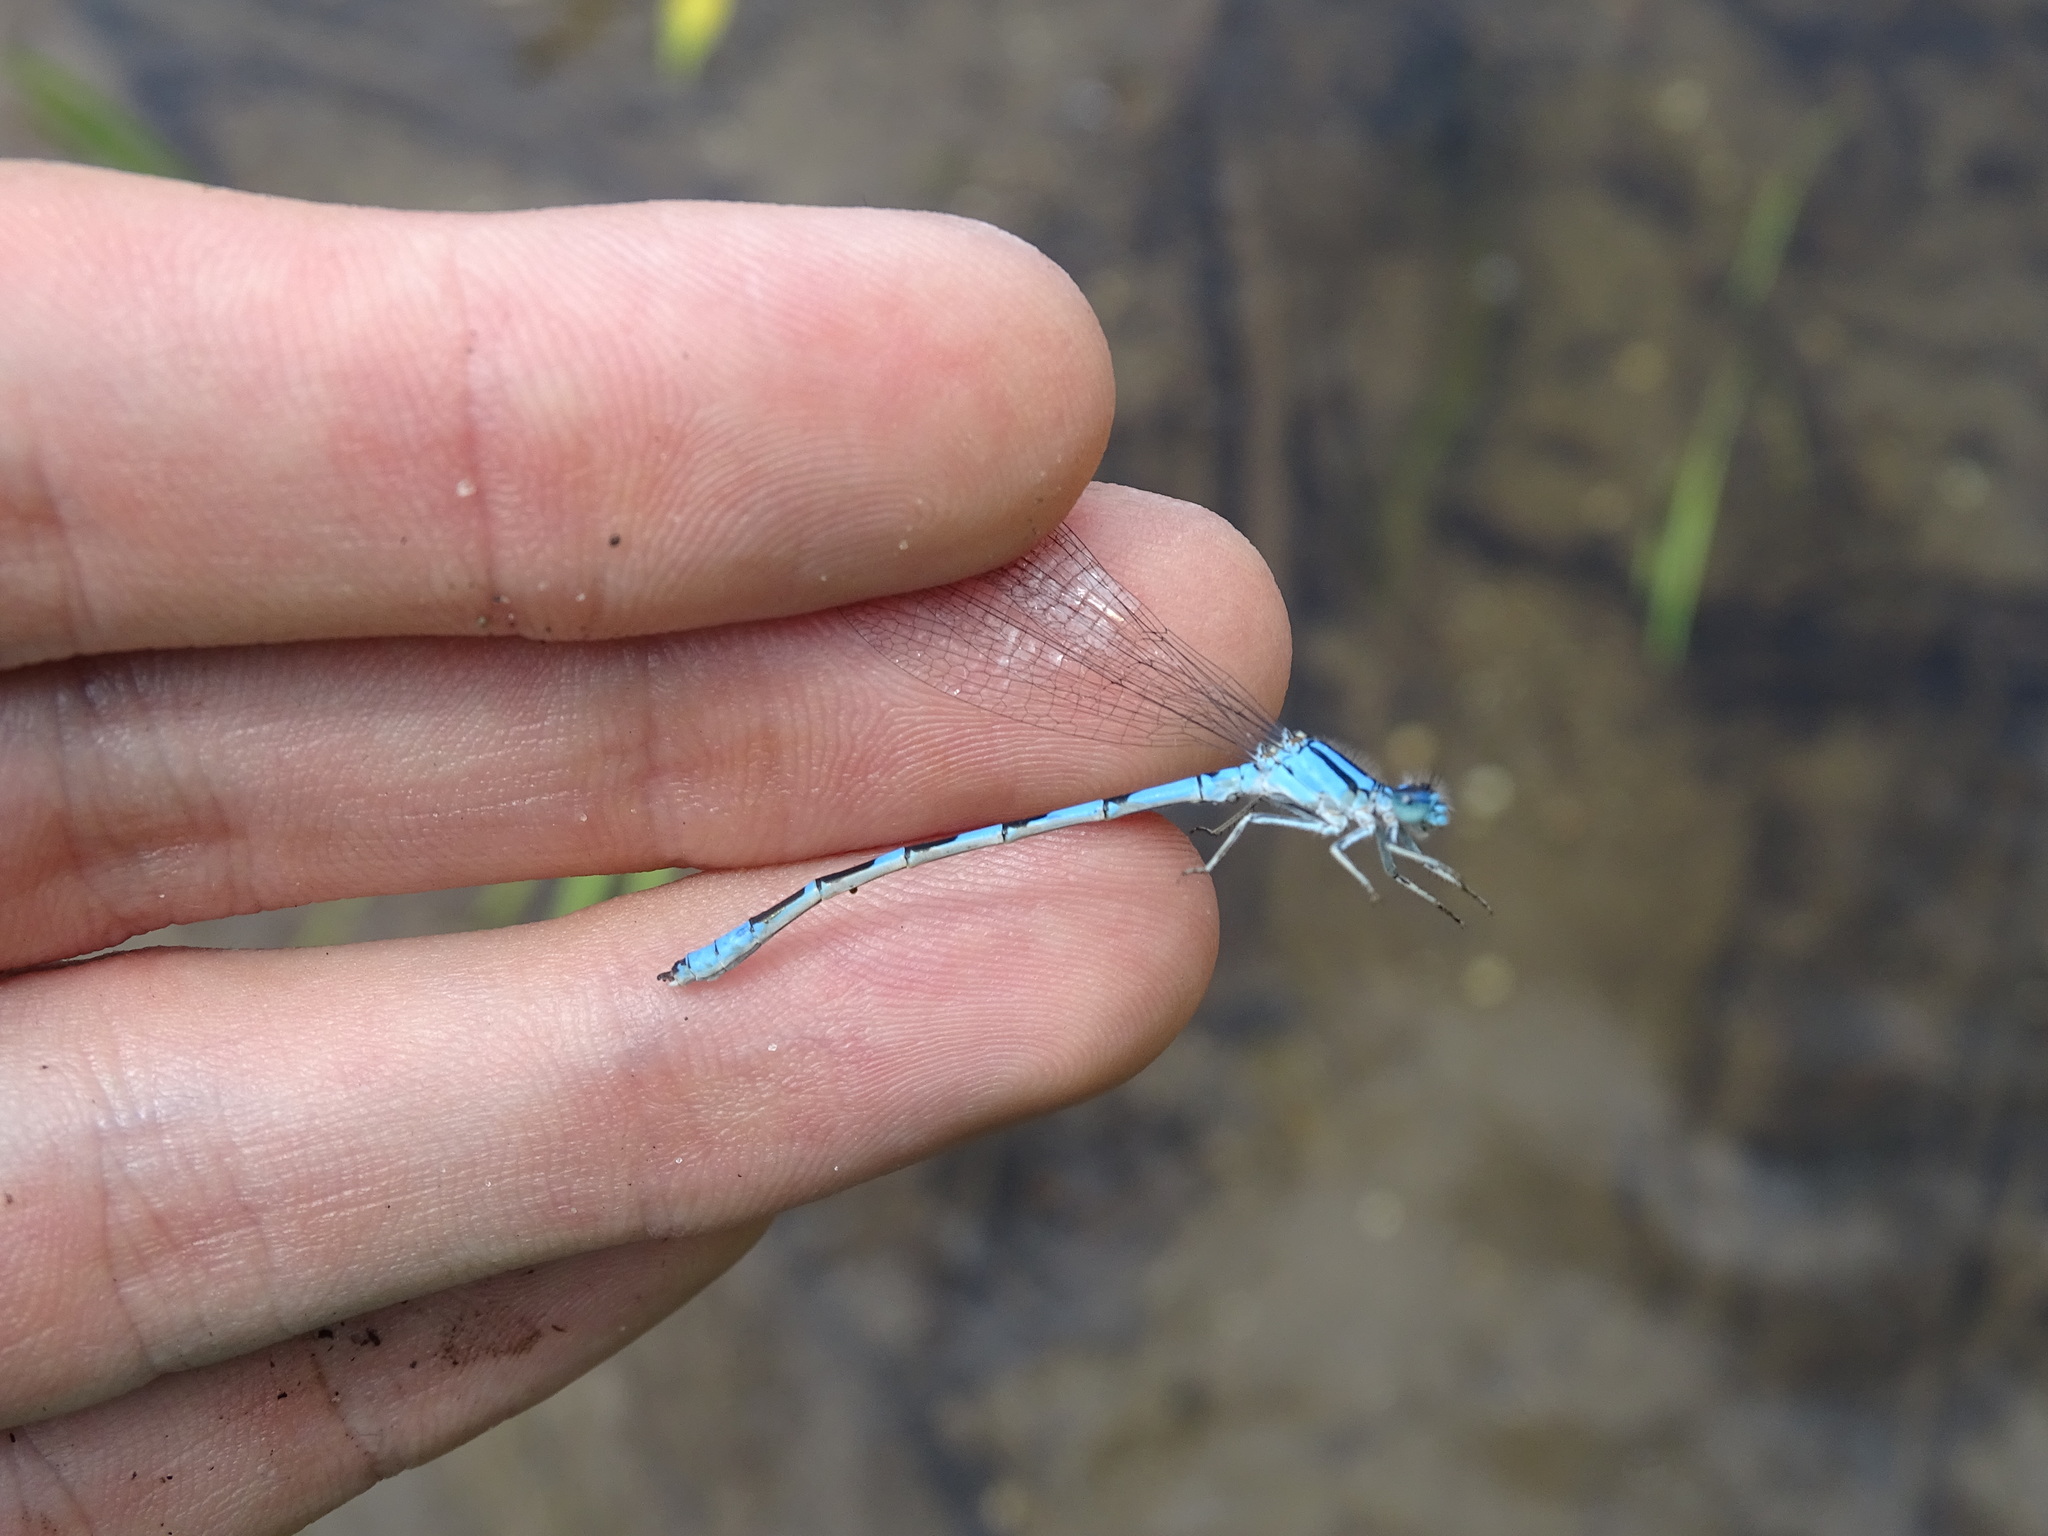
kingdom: Animalia
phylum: Arthropoda
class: Insecta
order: Odonata
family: Coenagrionidae
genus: Enallagma
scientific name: Enallagma anna
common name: River bluet
